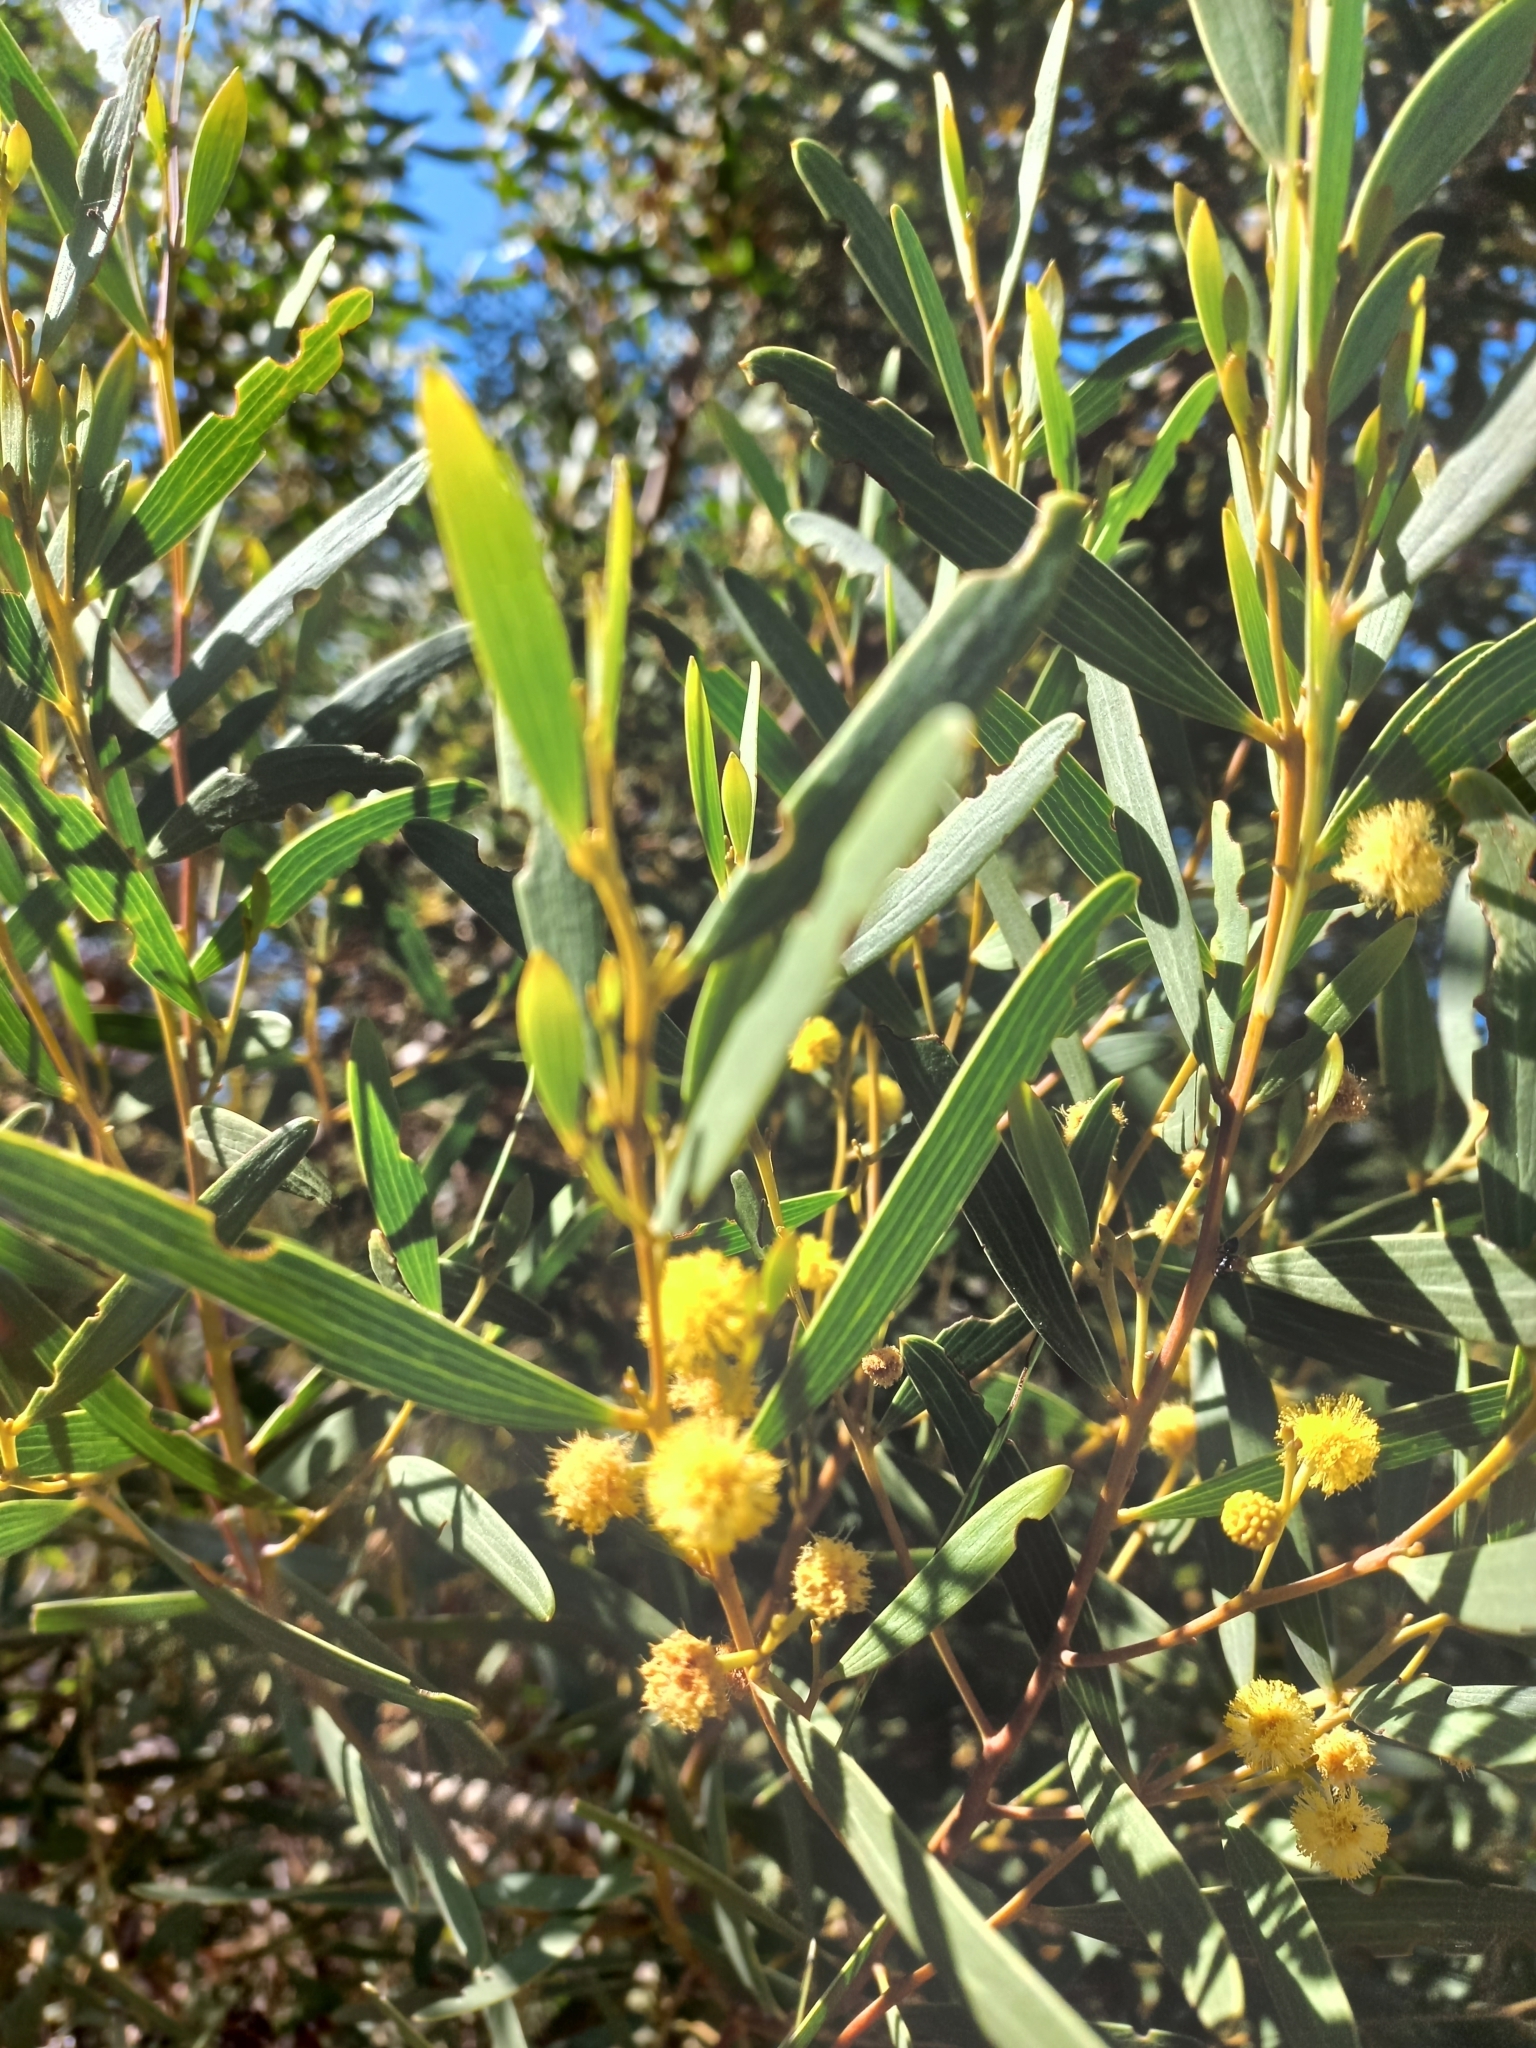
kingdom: Plantae
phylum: Tracheophyta
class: Magnoliopsida
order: Fabales
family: Fabaceae
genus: Acacia
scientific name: Acacia cyclops
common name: Coastal wattle
